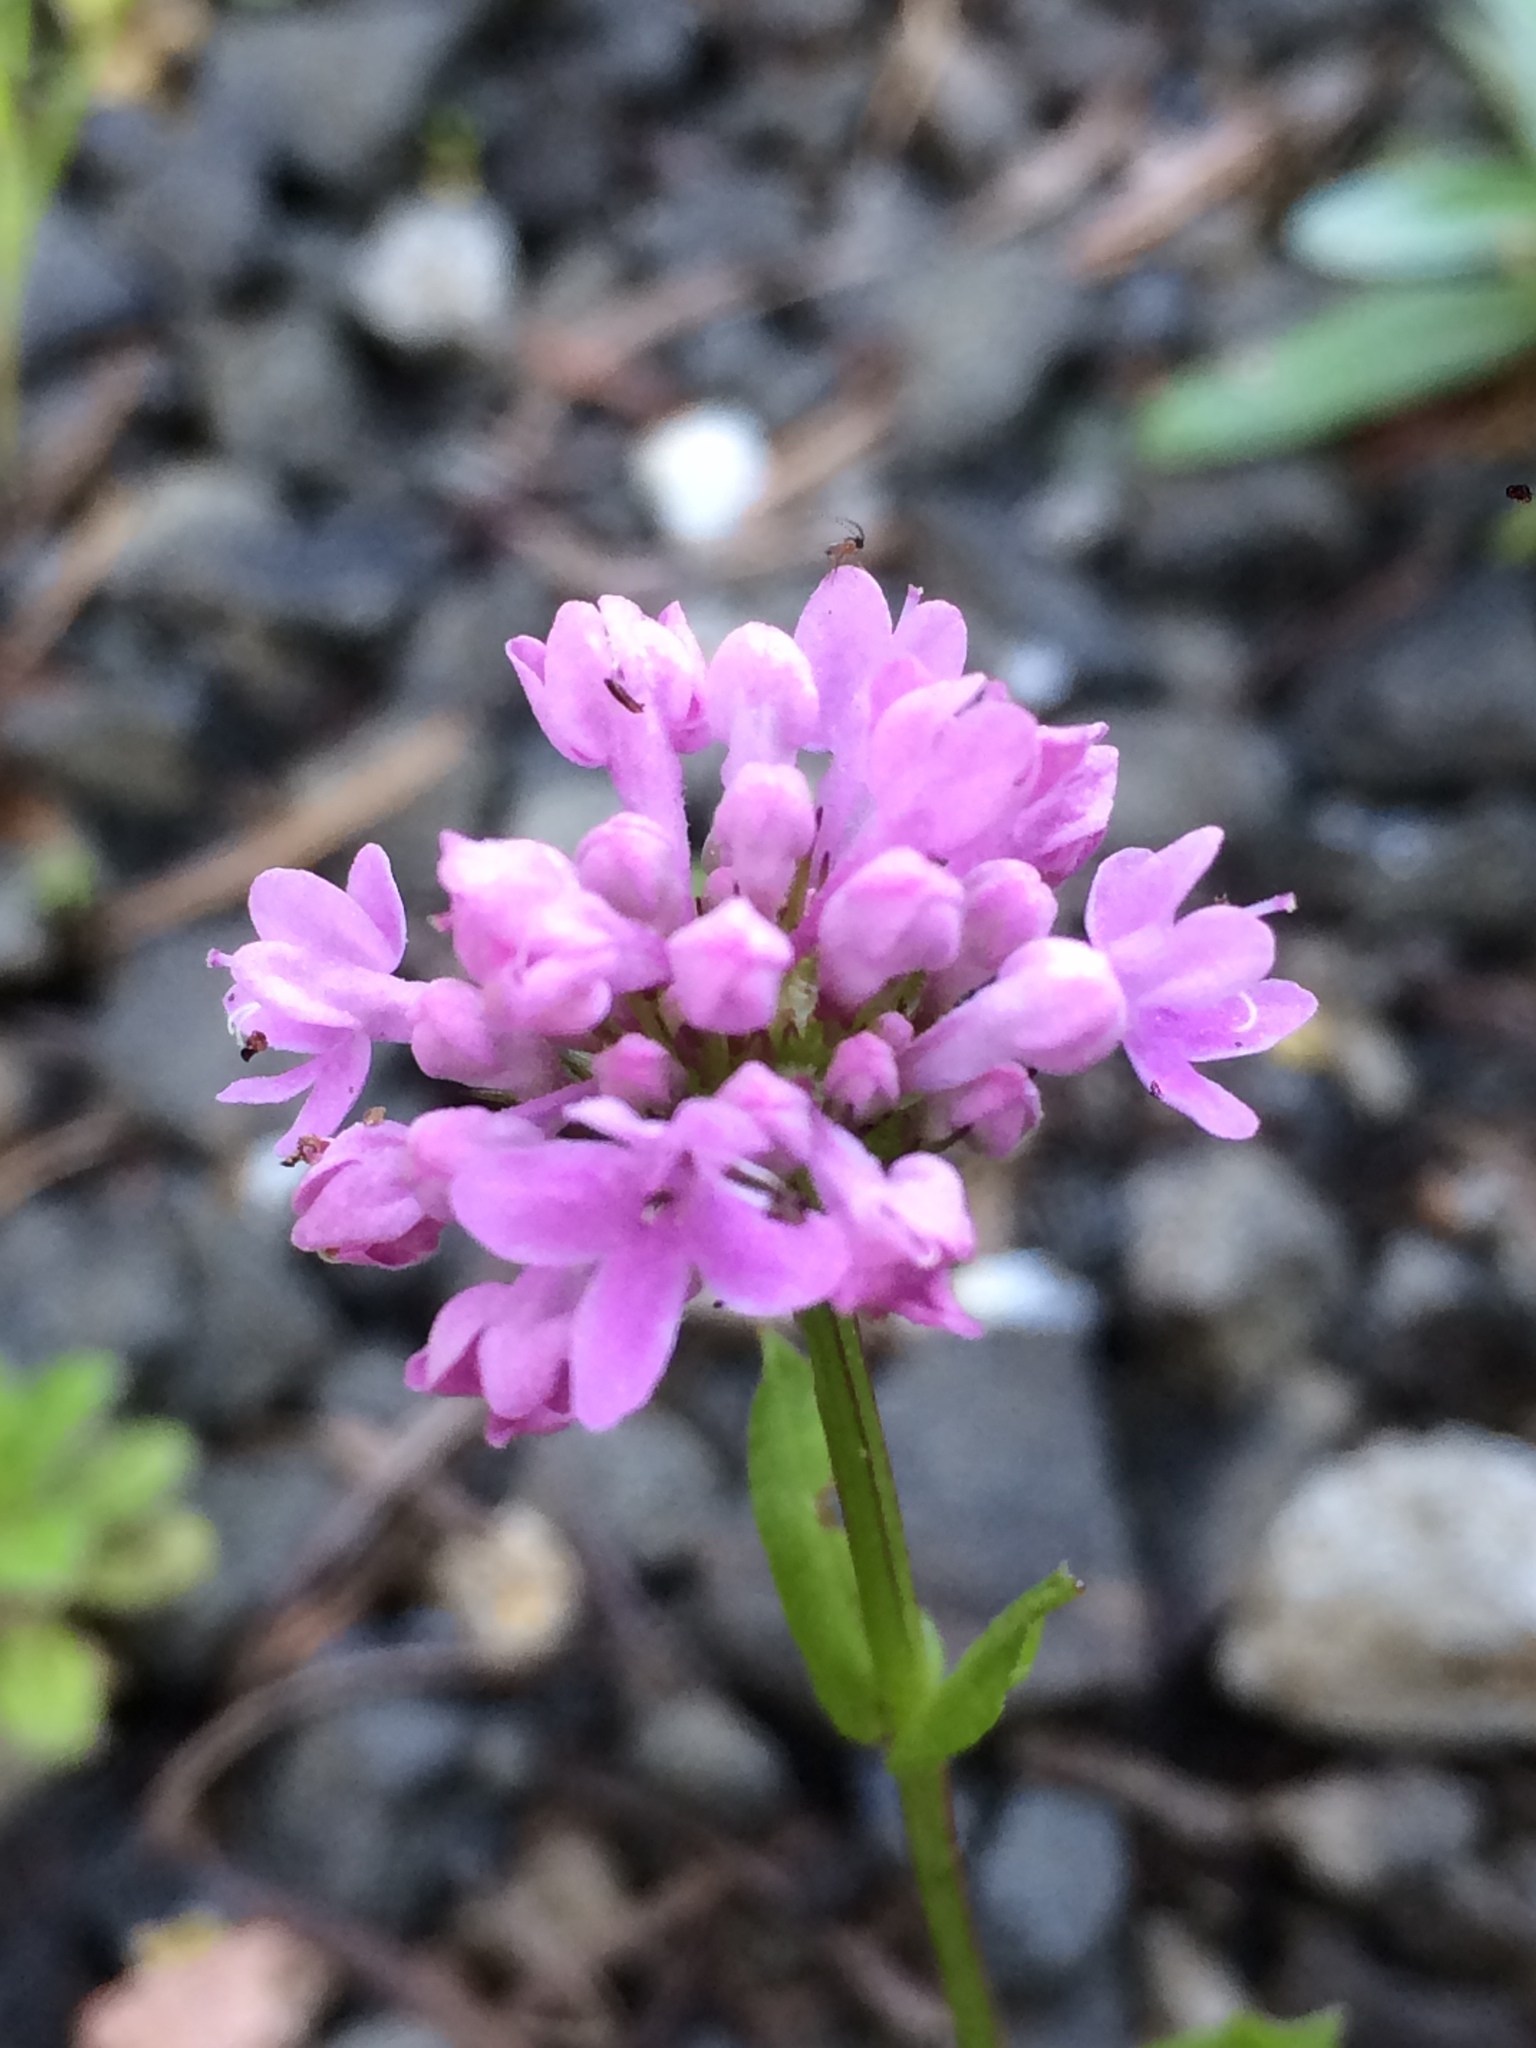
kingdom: Plantae
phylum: Tracheophyta
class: Magnoliopsida
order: Dipsacales
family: Caprifoliaceae
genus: Plectritis
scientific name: Plectritis congesta
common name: Pink plectritis
